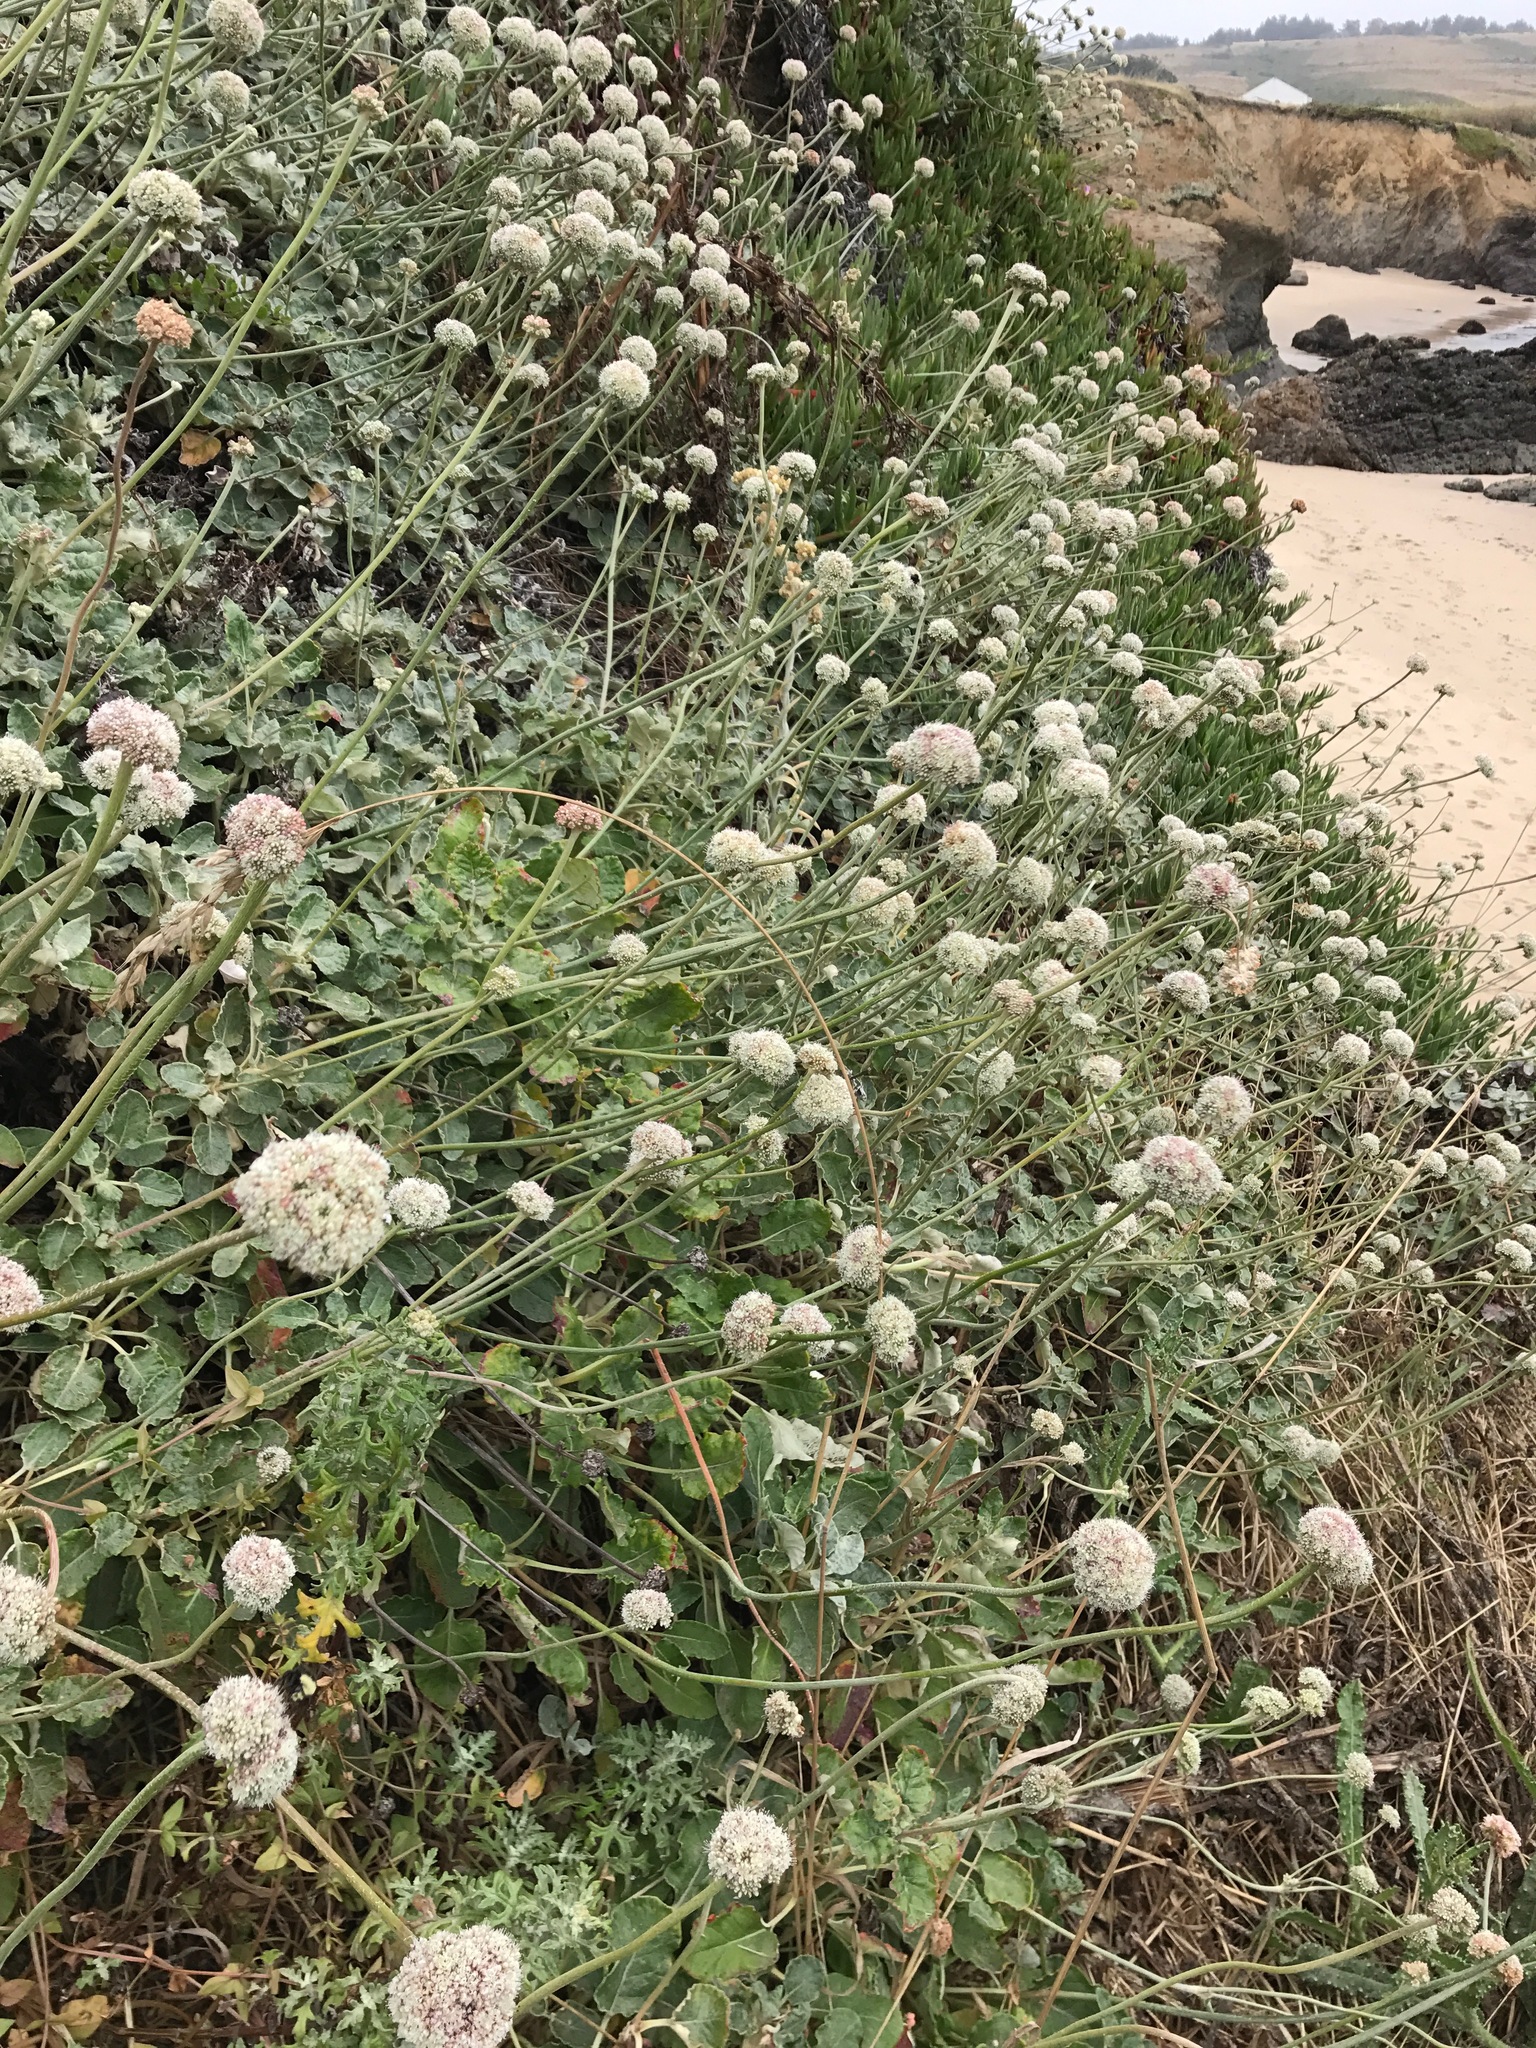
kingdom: Plantae
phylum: Tracheophyta
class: Magnoliopsida
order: Caryophyllales
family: Polygonaceae
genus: Eriogonum
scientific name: Eriogonum latifolium
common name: Seaside wild buckwheat
